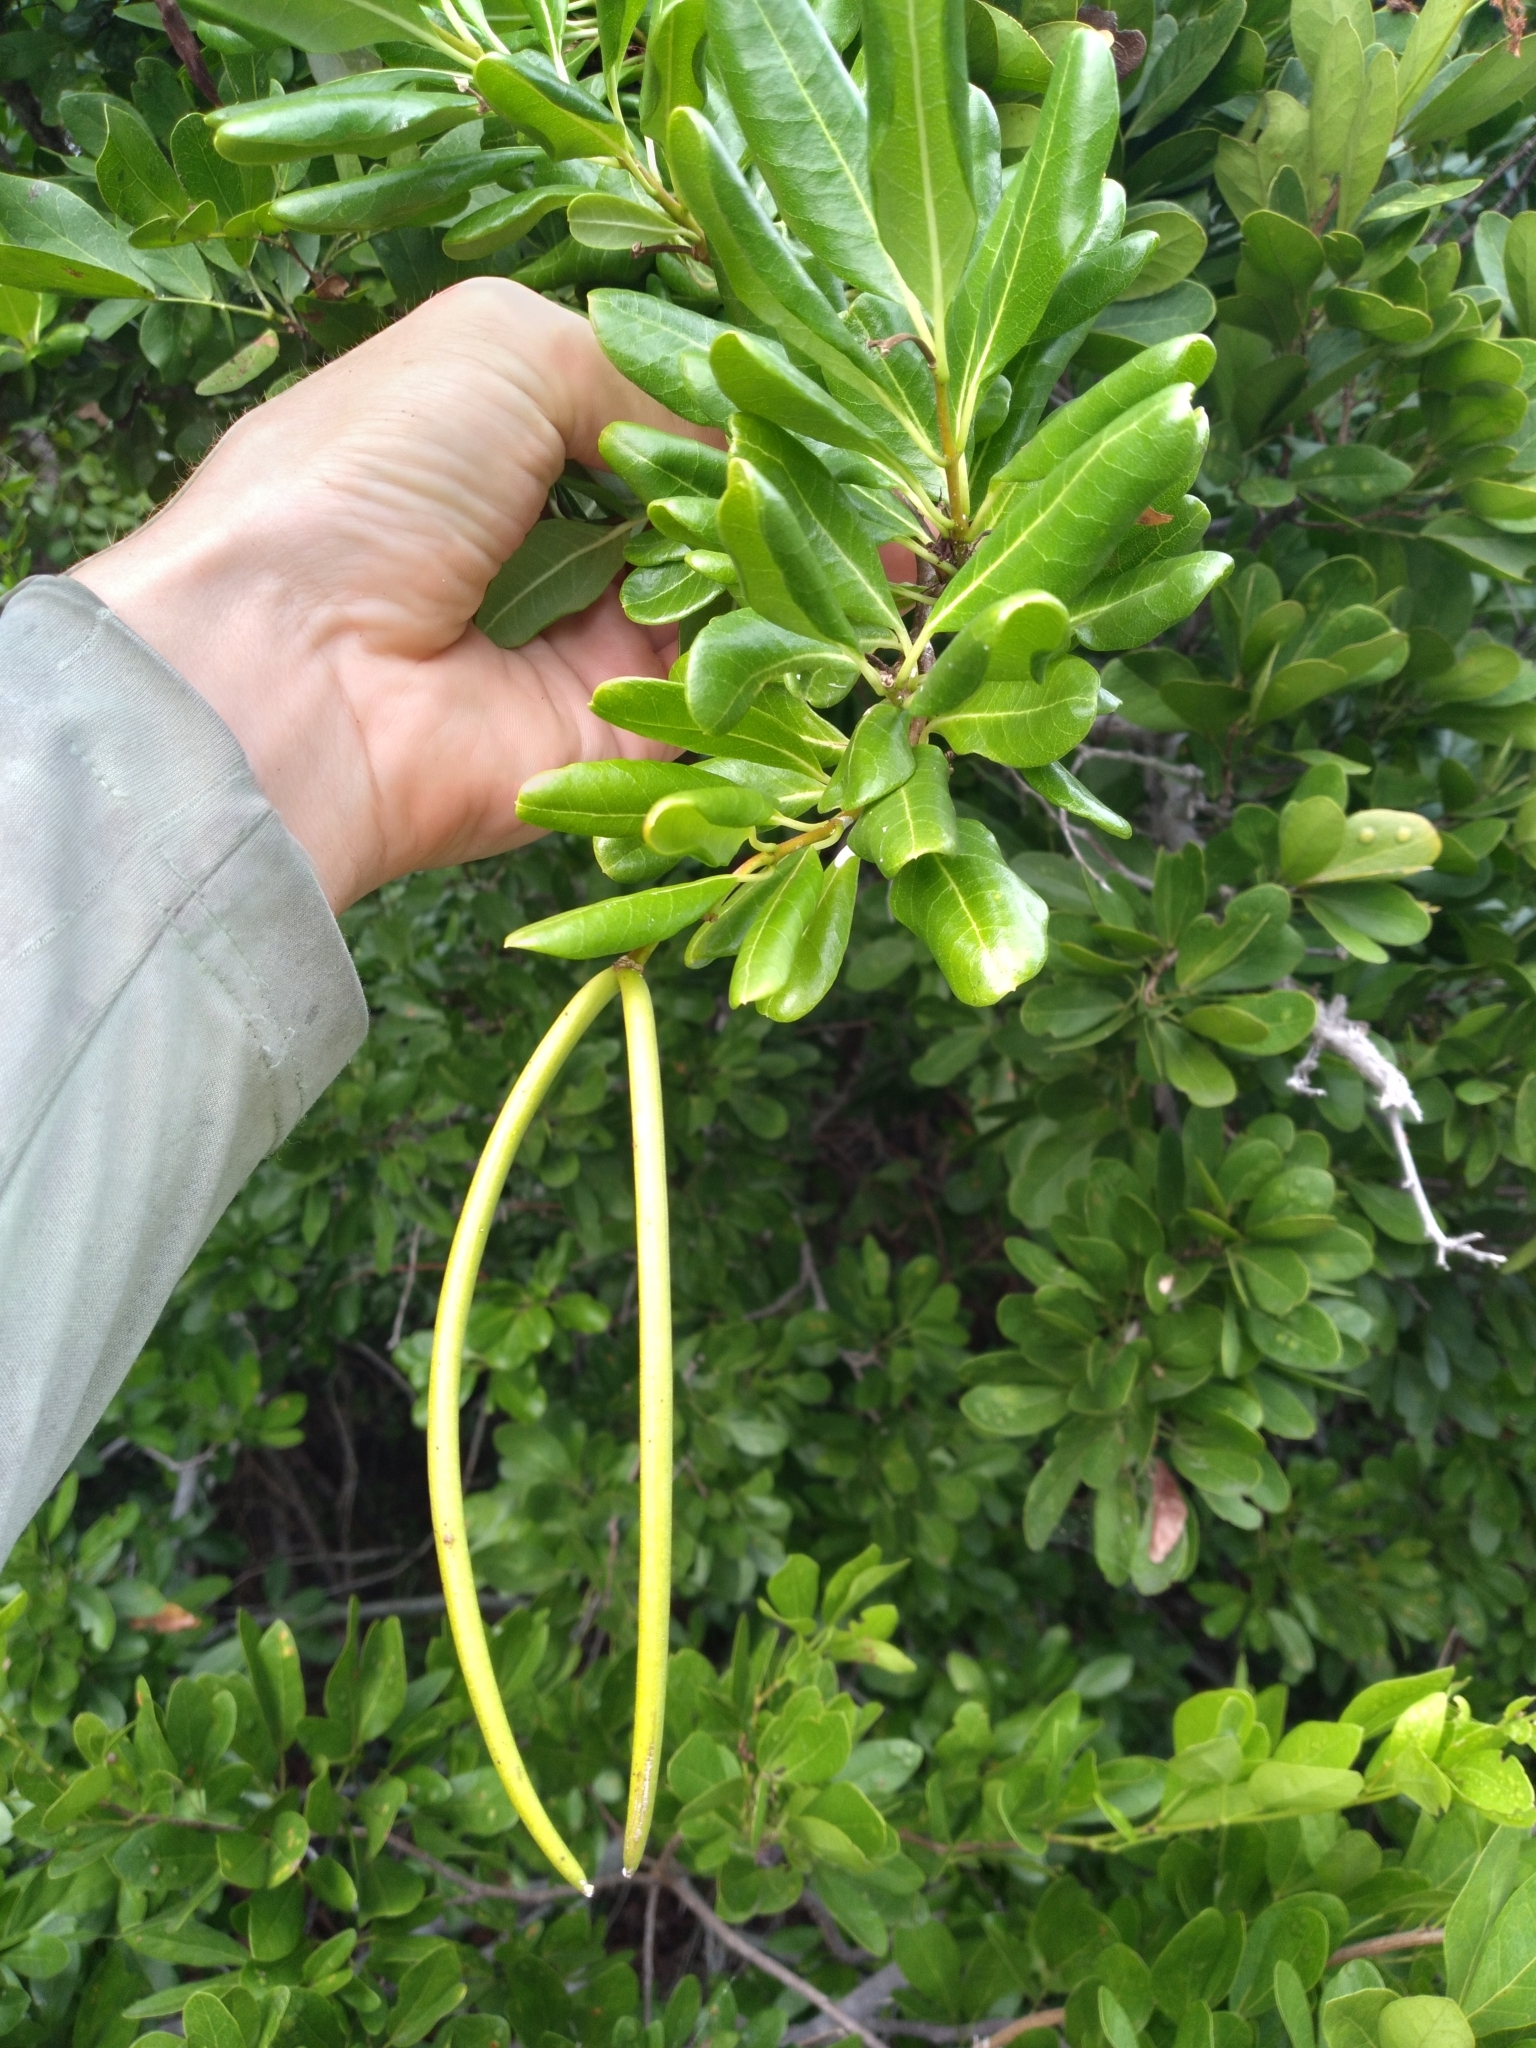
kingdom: Plantae
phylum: Tracheophyta
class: Magnoliopsida
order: Gentianales
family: Apocynaceae
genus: Pentalinon
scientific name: Pentalinon luteum
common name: Licebush
